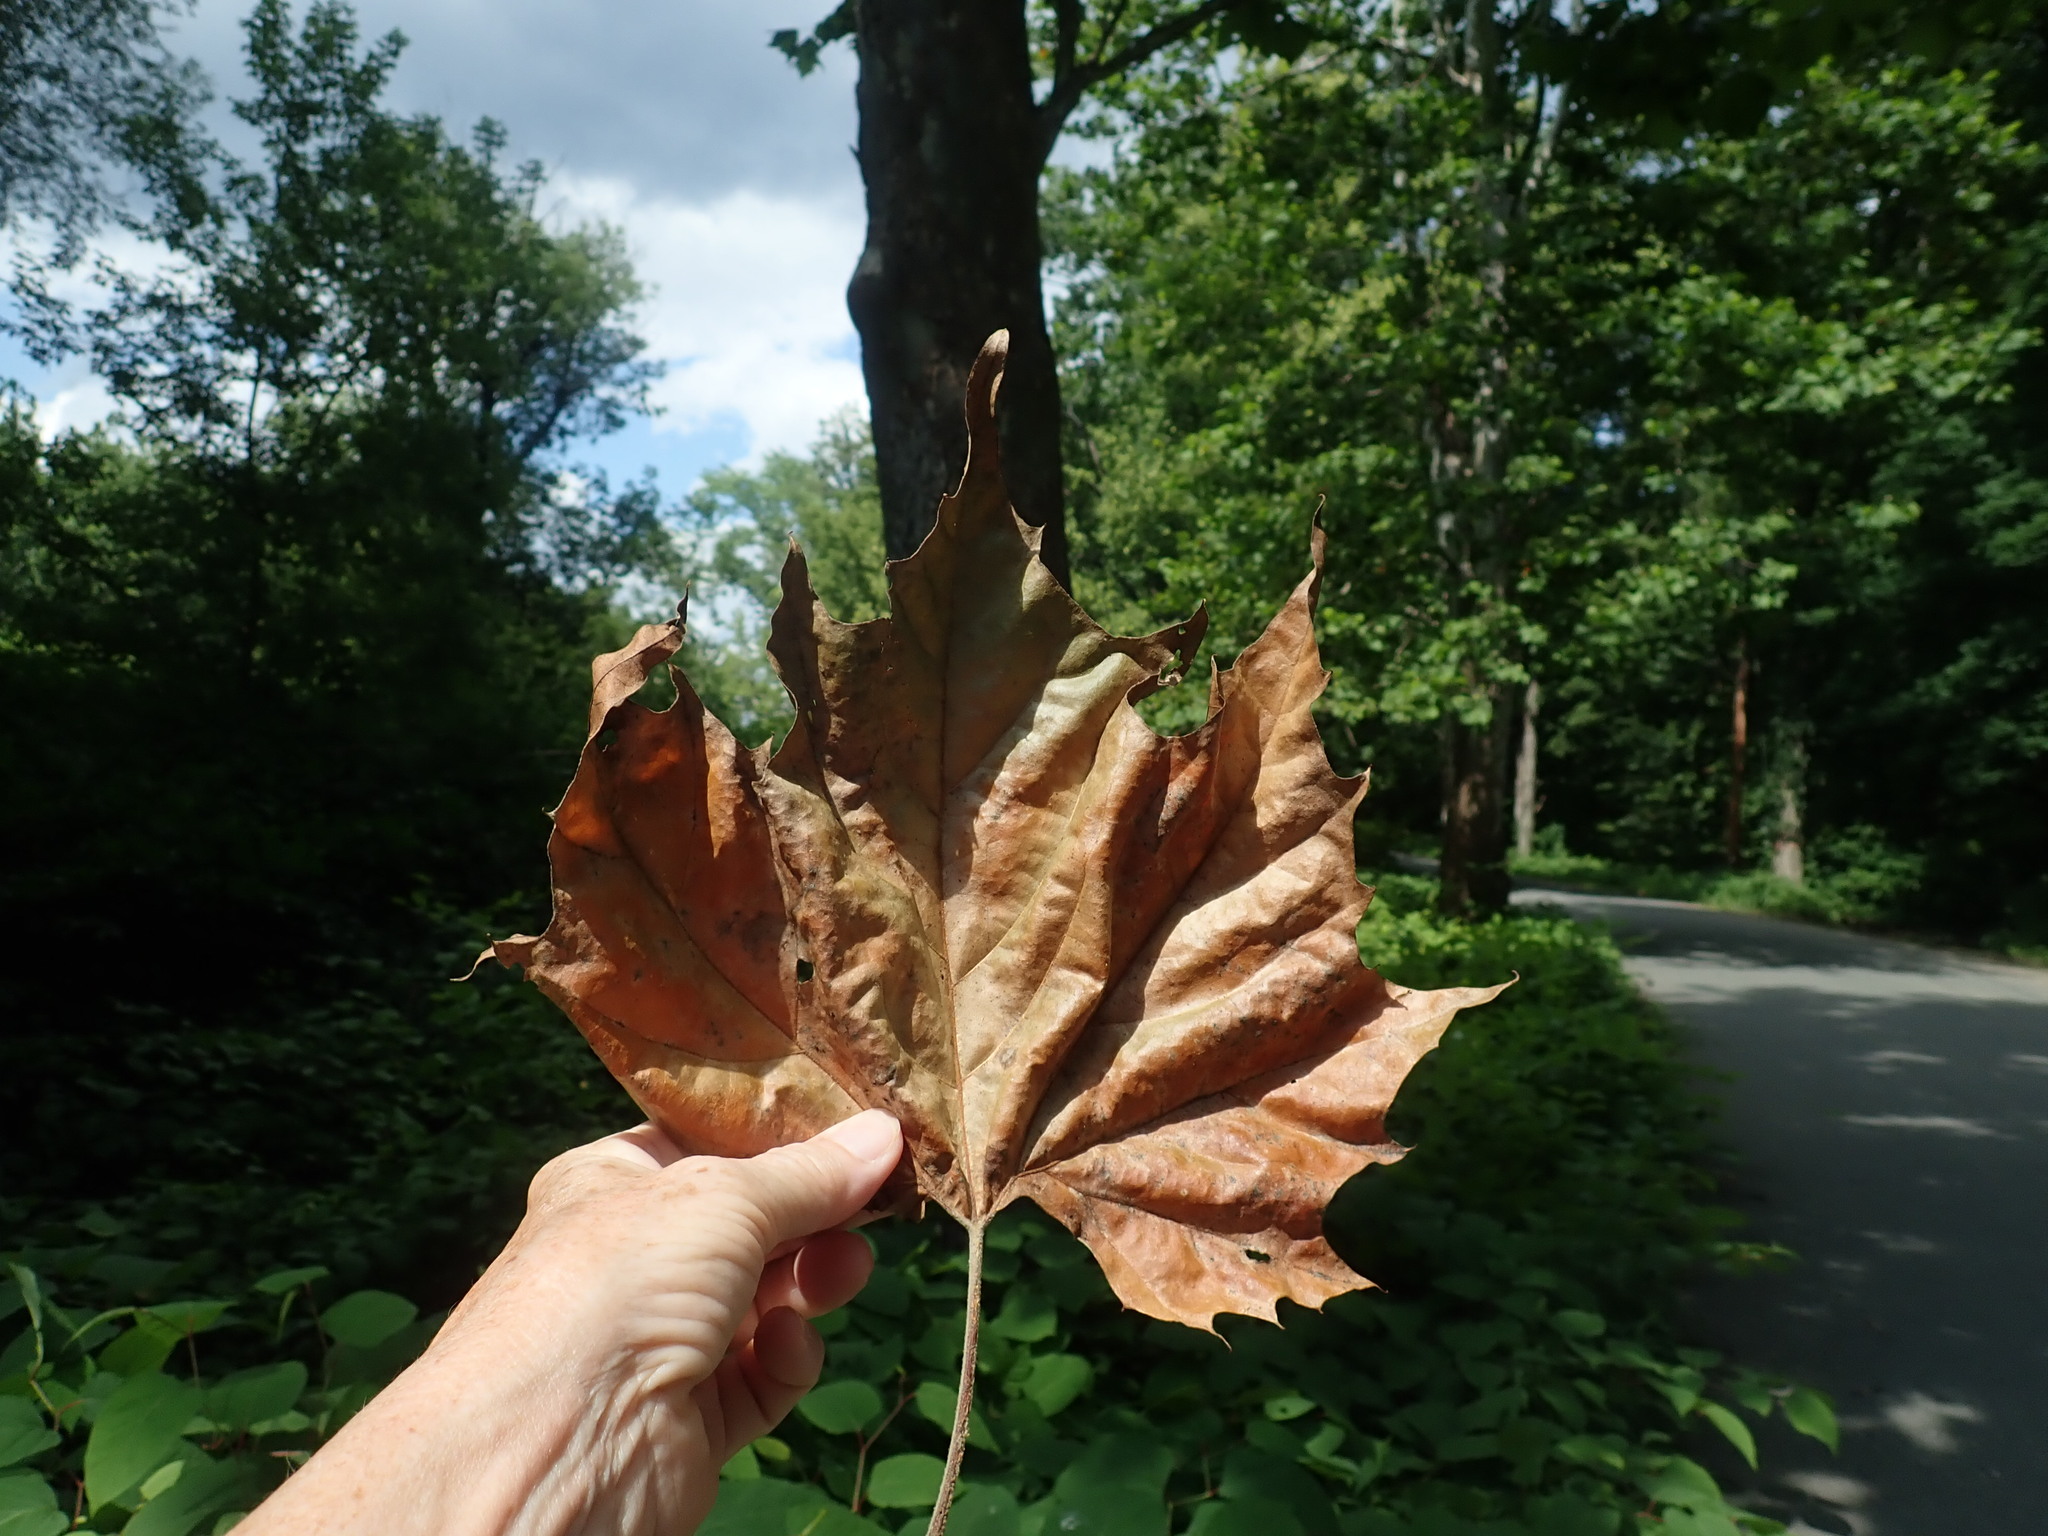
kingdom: Plantae
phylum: Tracheophyta
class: Magnoliopsida
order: Proteales
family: Platanaceae
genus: Platanus
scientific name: Platanus occidentalis
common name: American sycamore
